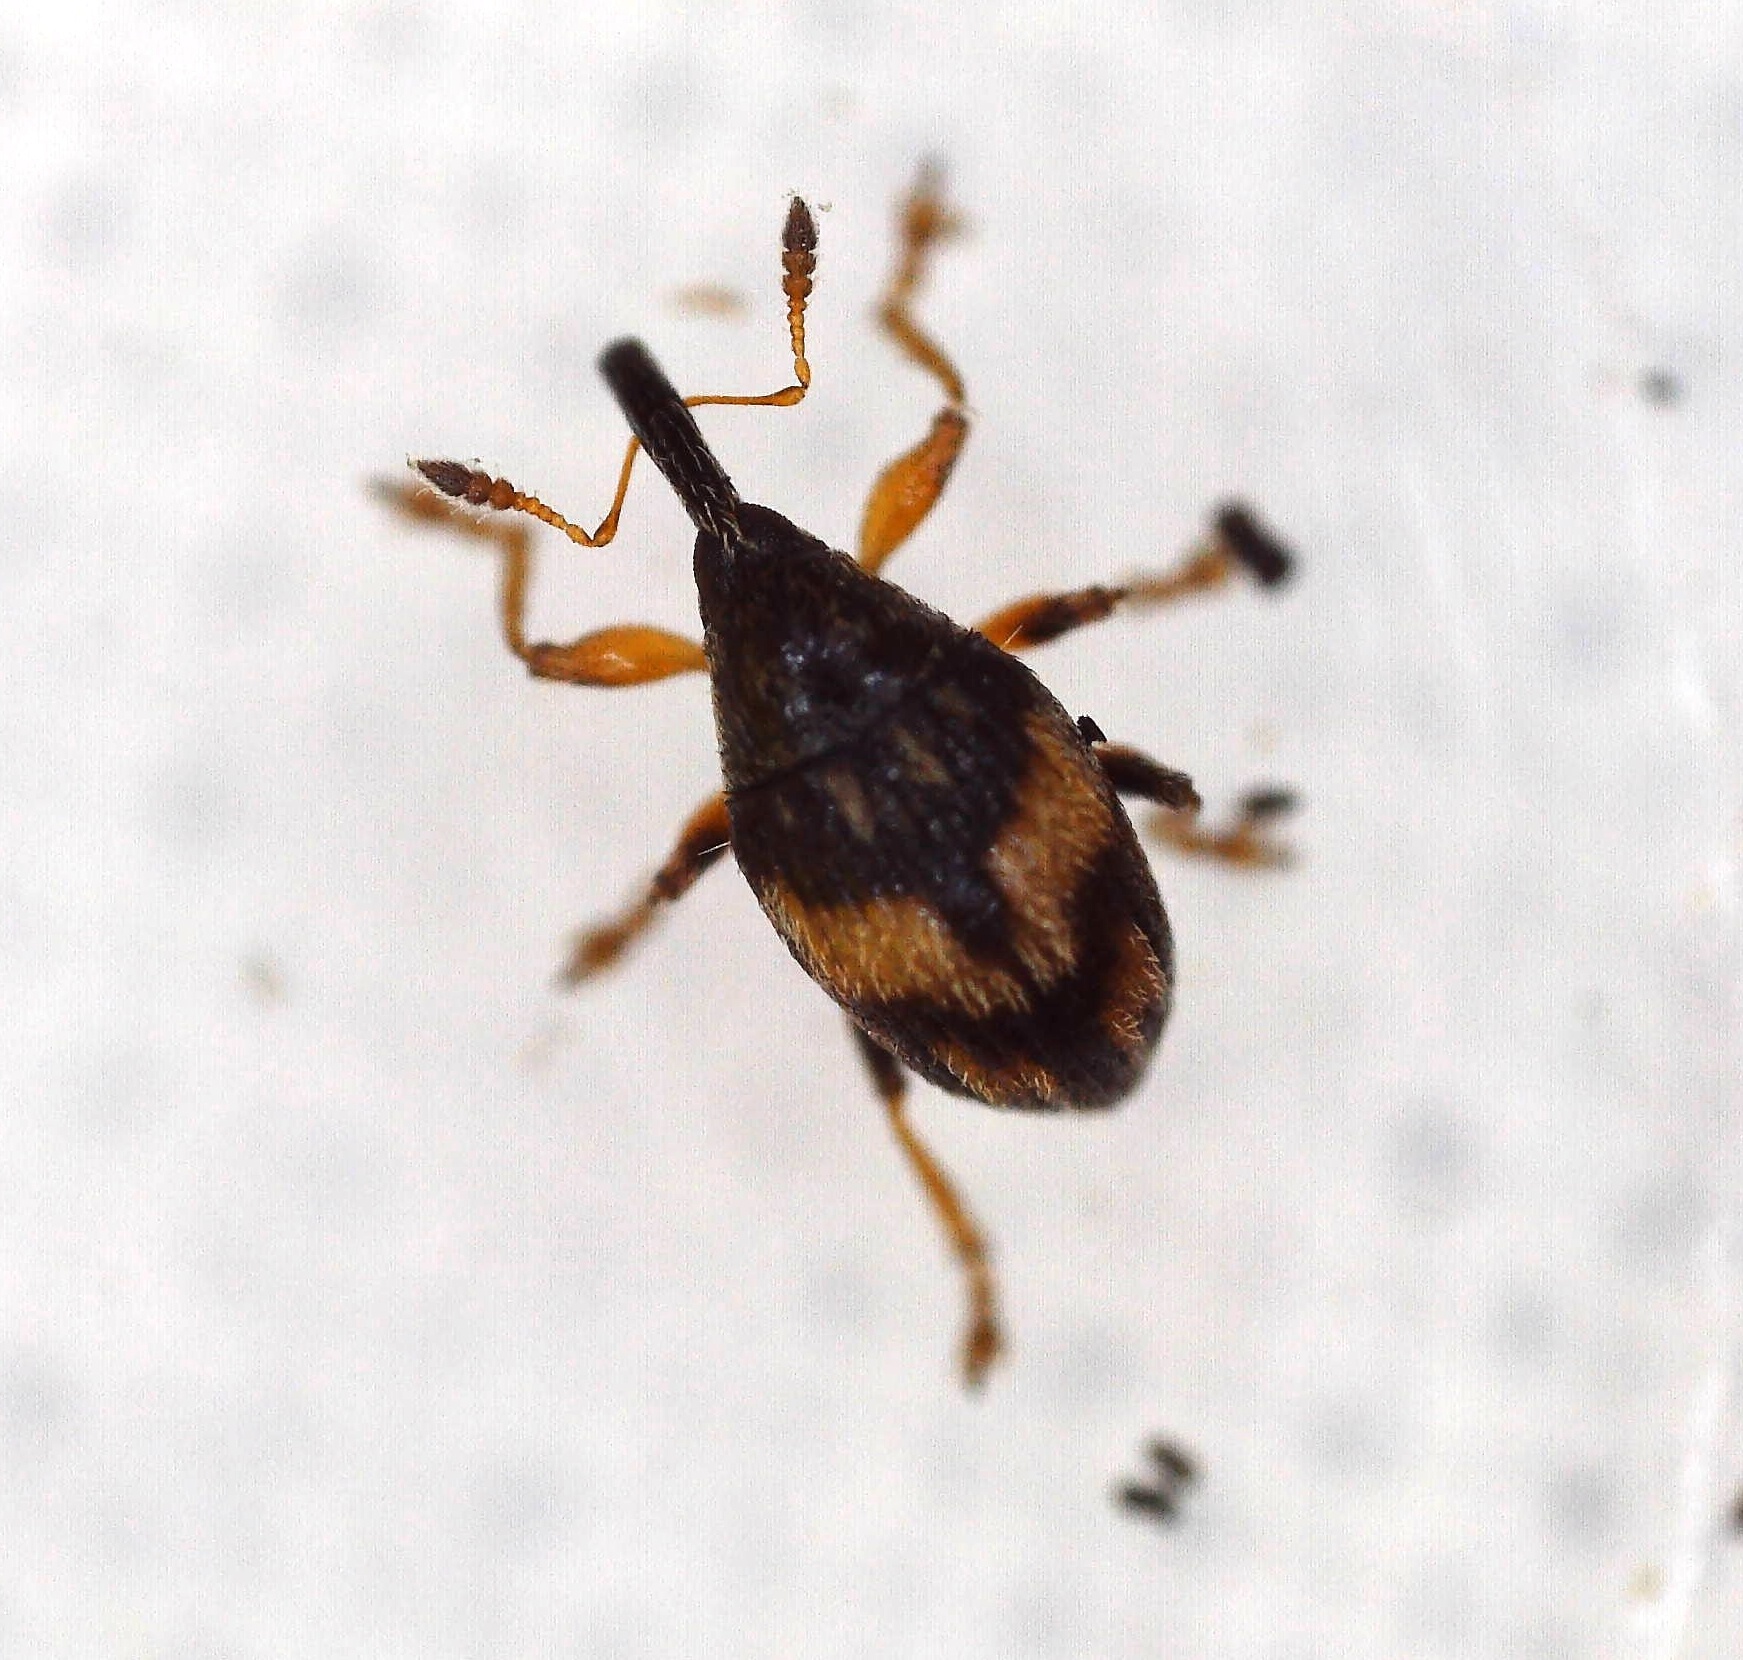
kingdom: Animalia
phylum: Arthropoda
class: Insecta
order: Coleoptera
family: Brentidae
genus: Nanophyes
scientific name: Nanophyes marmoratus
